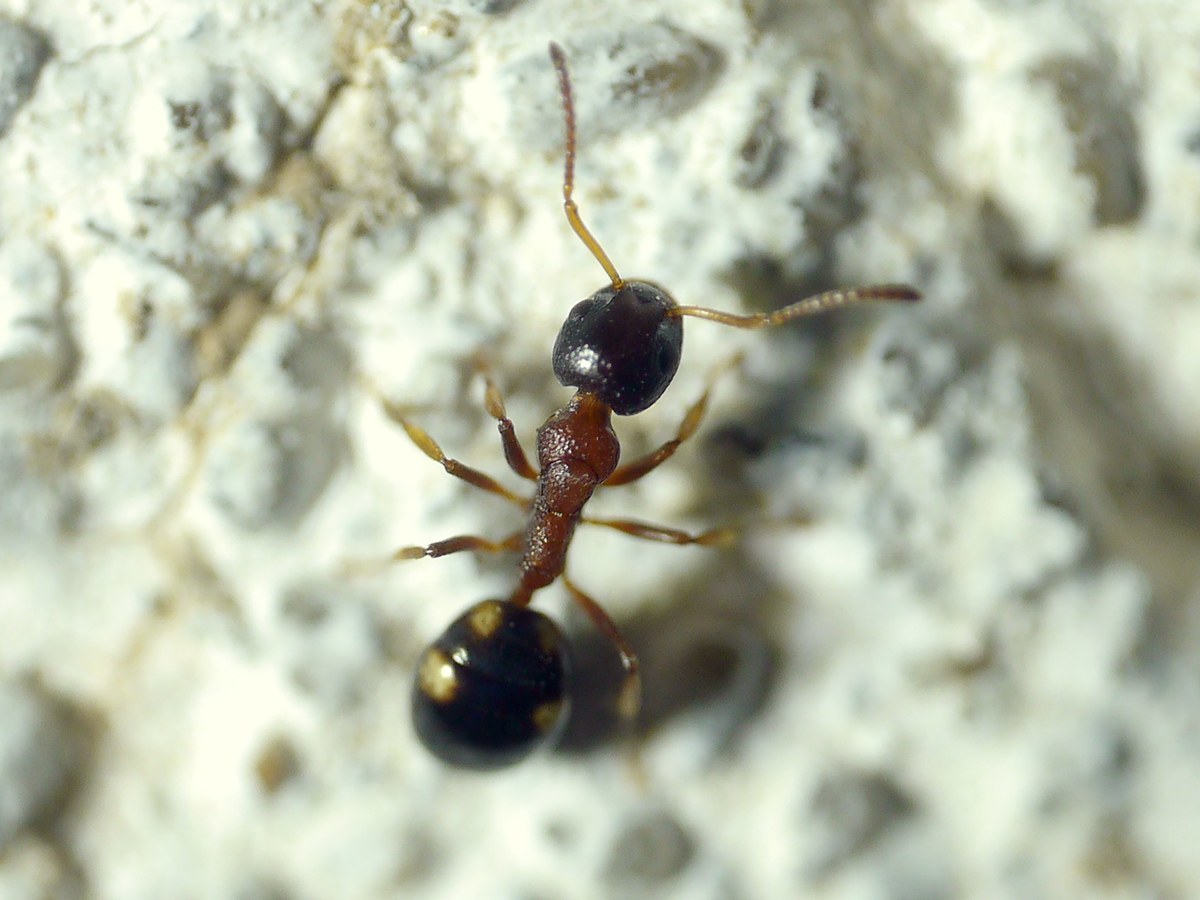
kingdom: Animalia
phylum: Arthropoda
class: Insecta
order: Hymenoptera
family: Formicidae
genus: Dolichoderus
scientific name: Dolichoderus quadripunctatus
